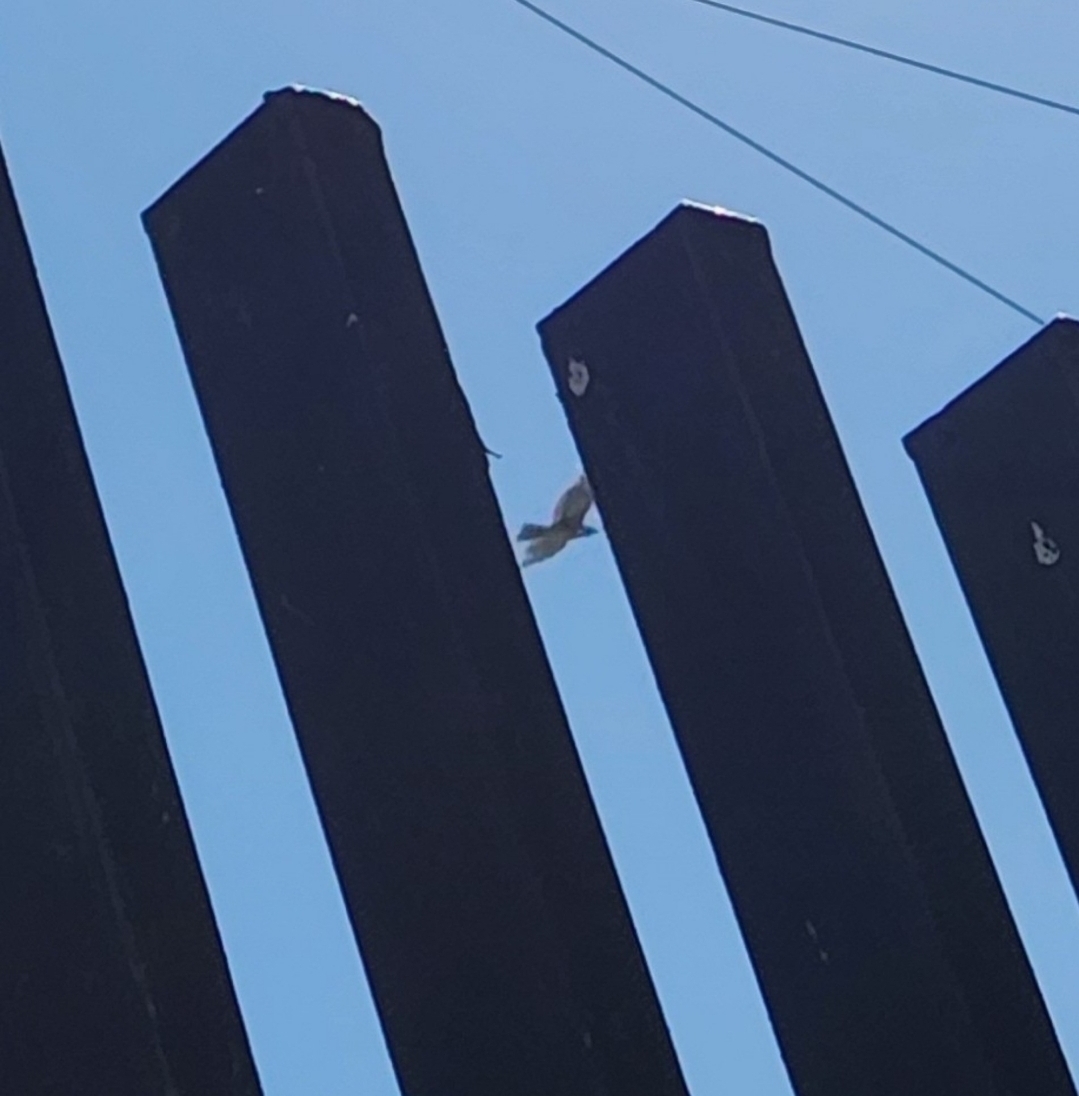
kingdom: Animalia
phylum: Chordata
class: Aves
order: Accipitriformes
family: Accipitridae
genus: Buteo
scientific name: Buteo jamaicensis
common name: Red-tailed hawk
